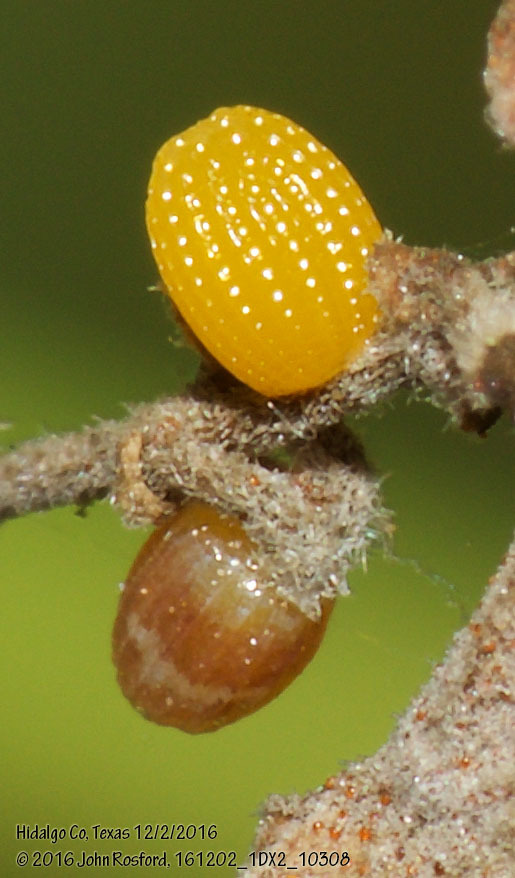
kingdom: Animalia
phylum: Arthropoda
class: Insecta
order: Lepidoptera
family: Nymphalidae
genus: Dryas
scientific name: Dryas iulia
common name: Flambeau
